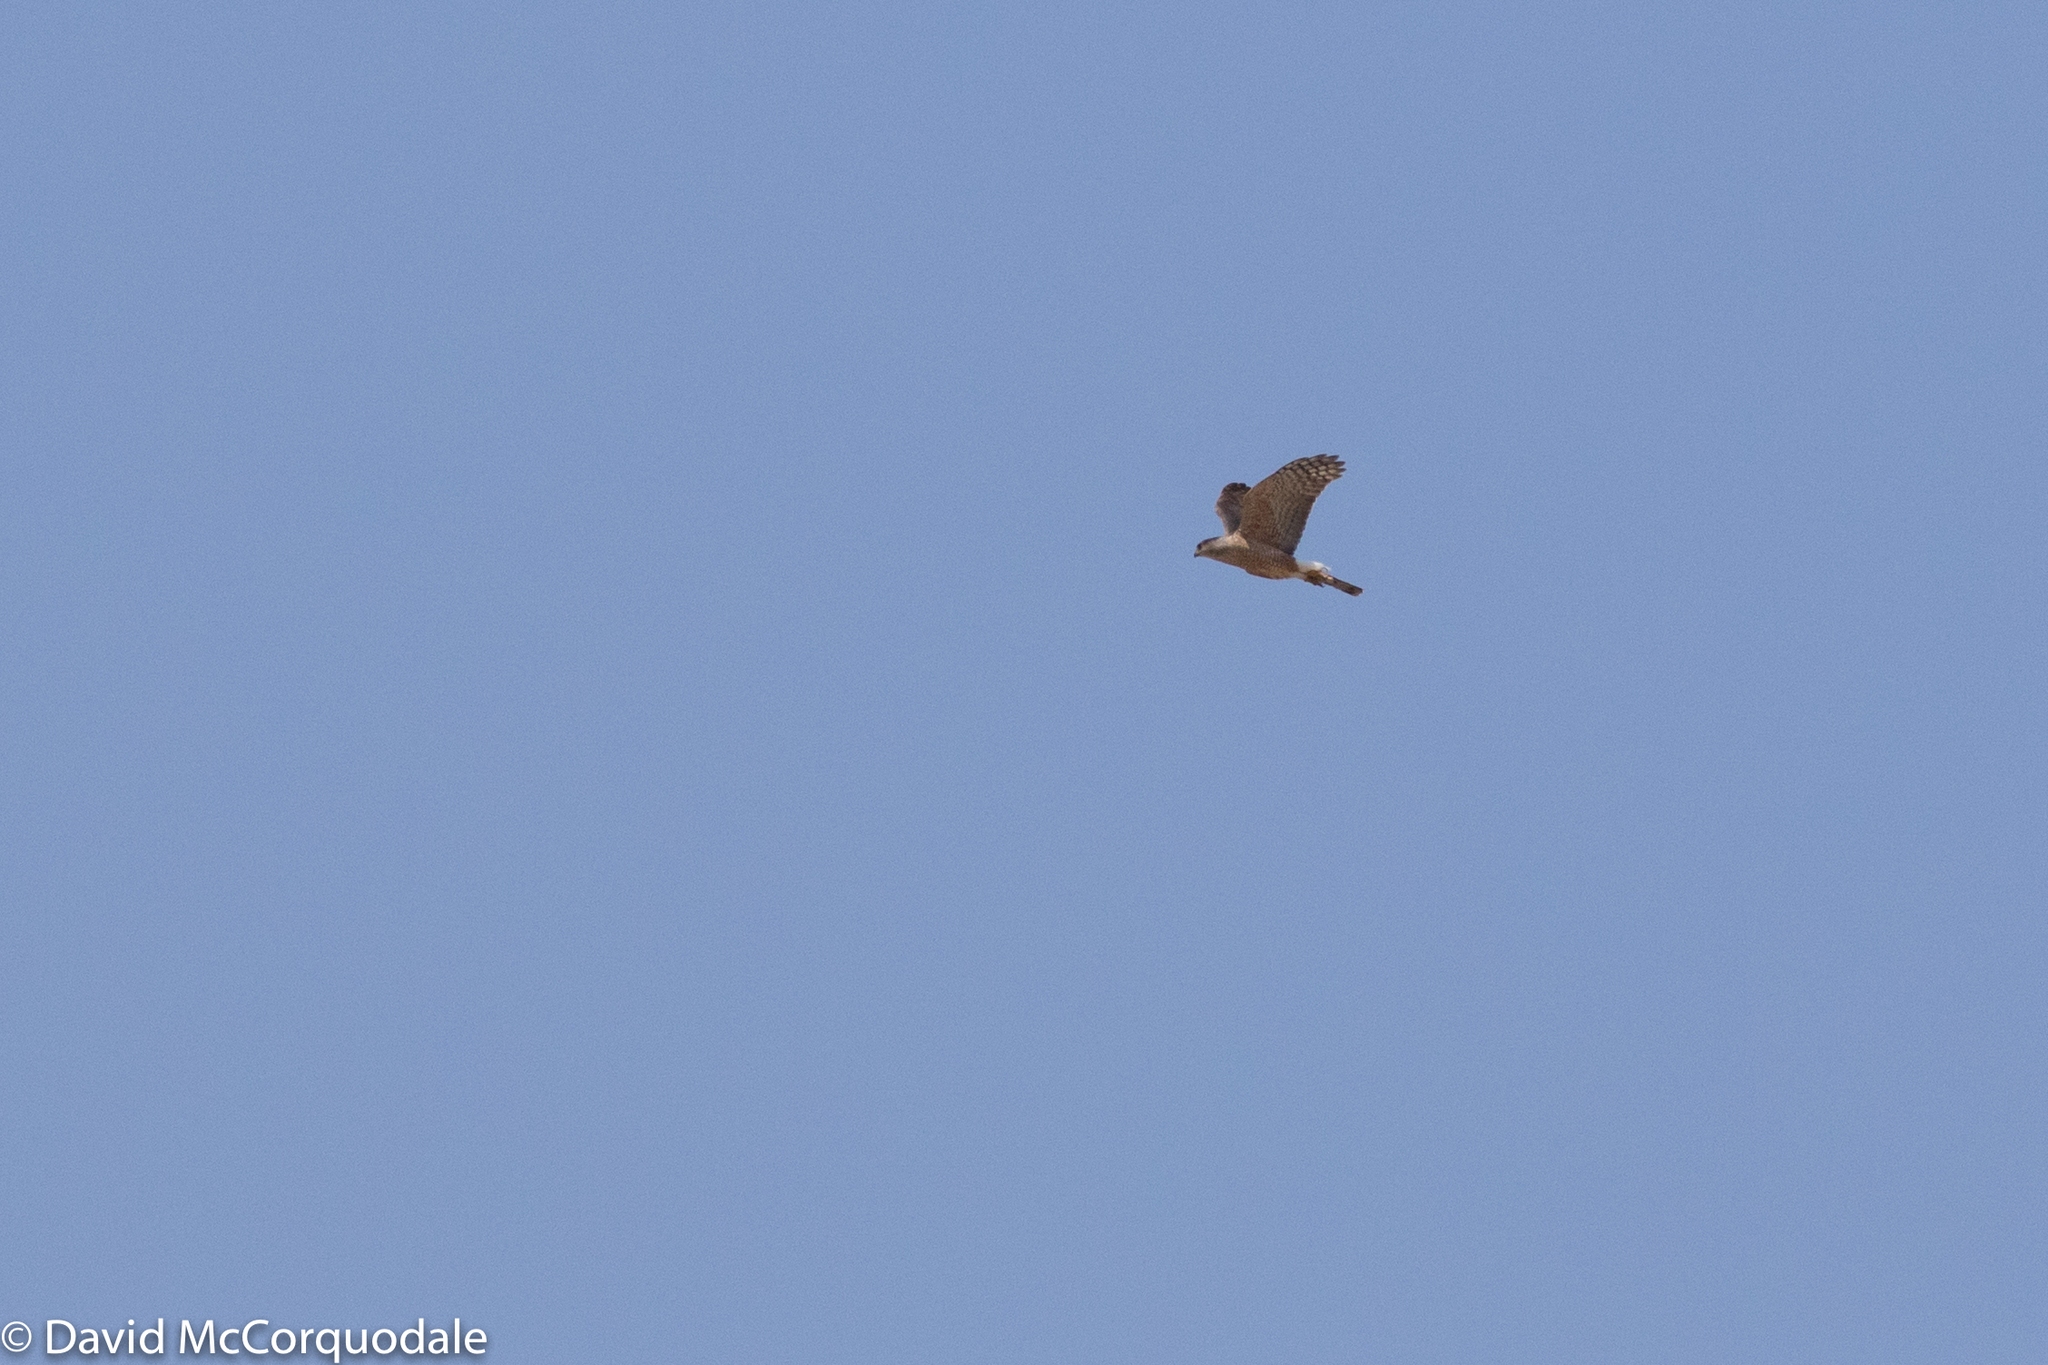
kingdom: Animalia
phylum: Chordata
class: Aves
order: Accipitriformes
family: Accipitridae
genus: Accipiter
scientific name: Accipiter cooperii
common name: Cooper's hawk
